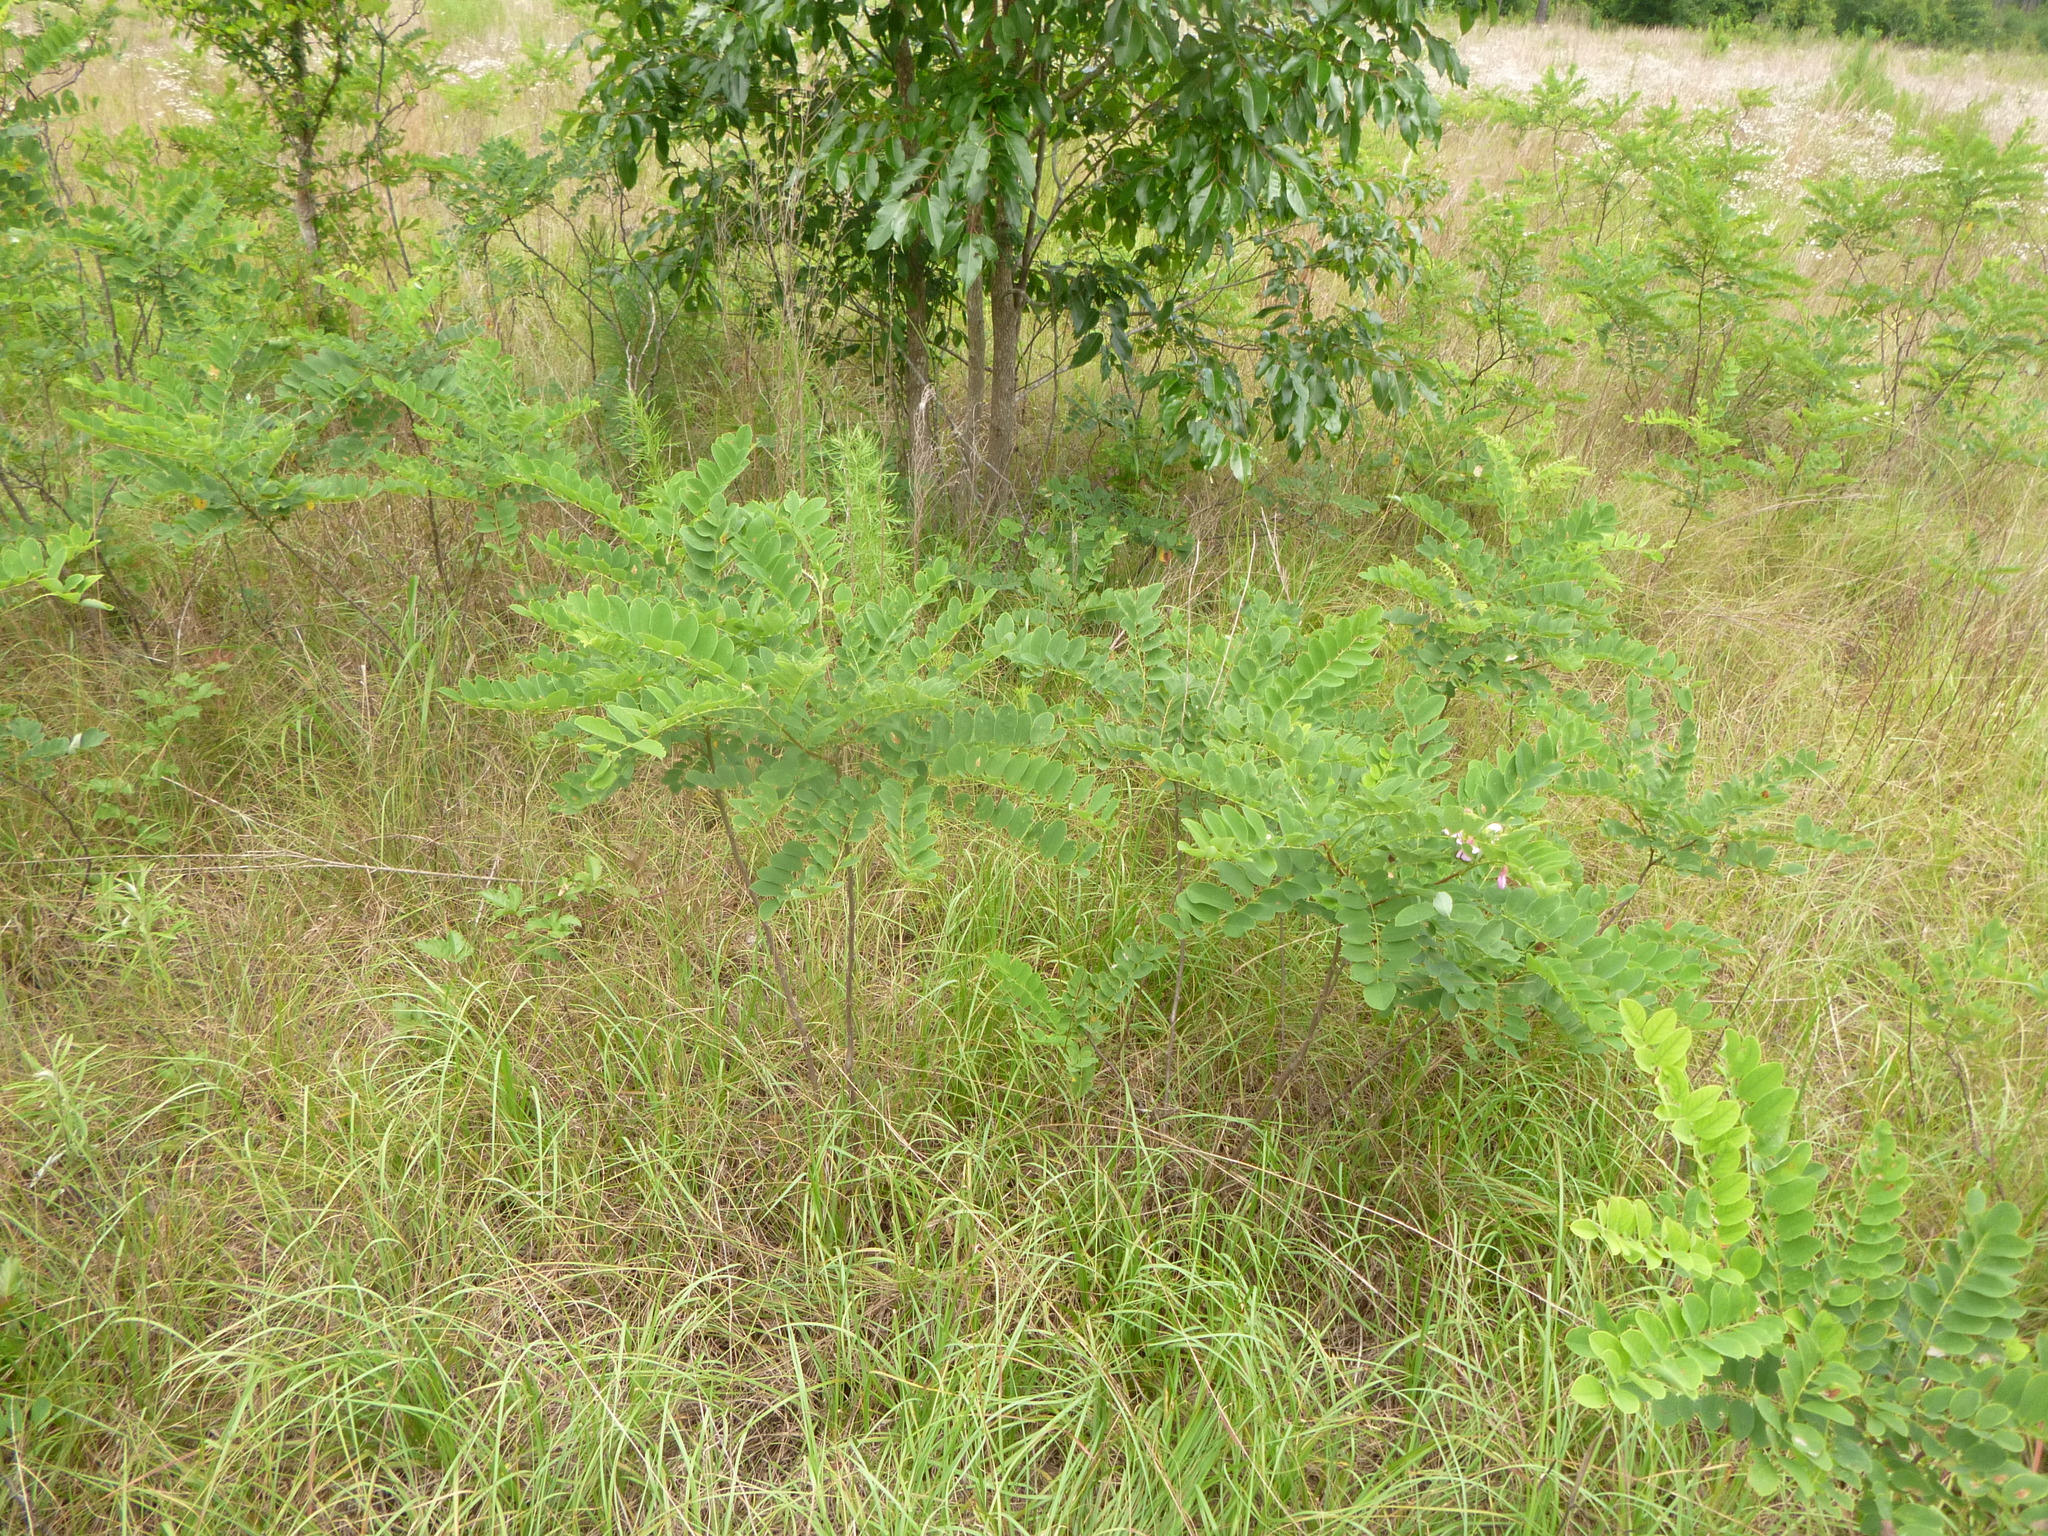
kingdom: Plantae
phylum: Tracheophyta
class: Magnoliopsida
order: Fabales
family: Fabaceae
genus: Robinia
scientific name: Robinia hispida
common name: Bristly locust
